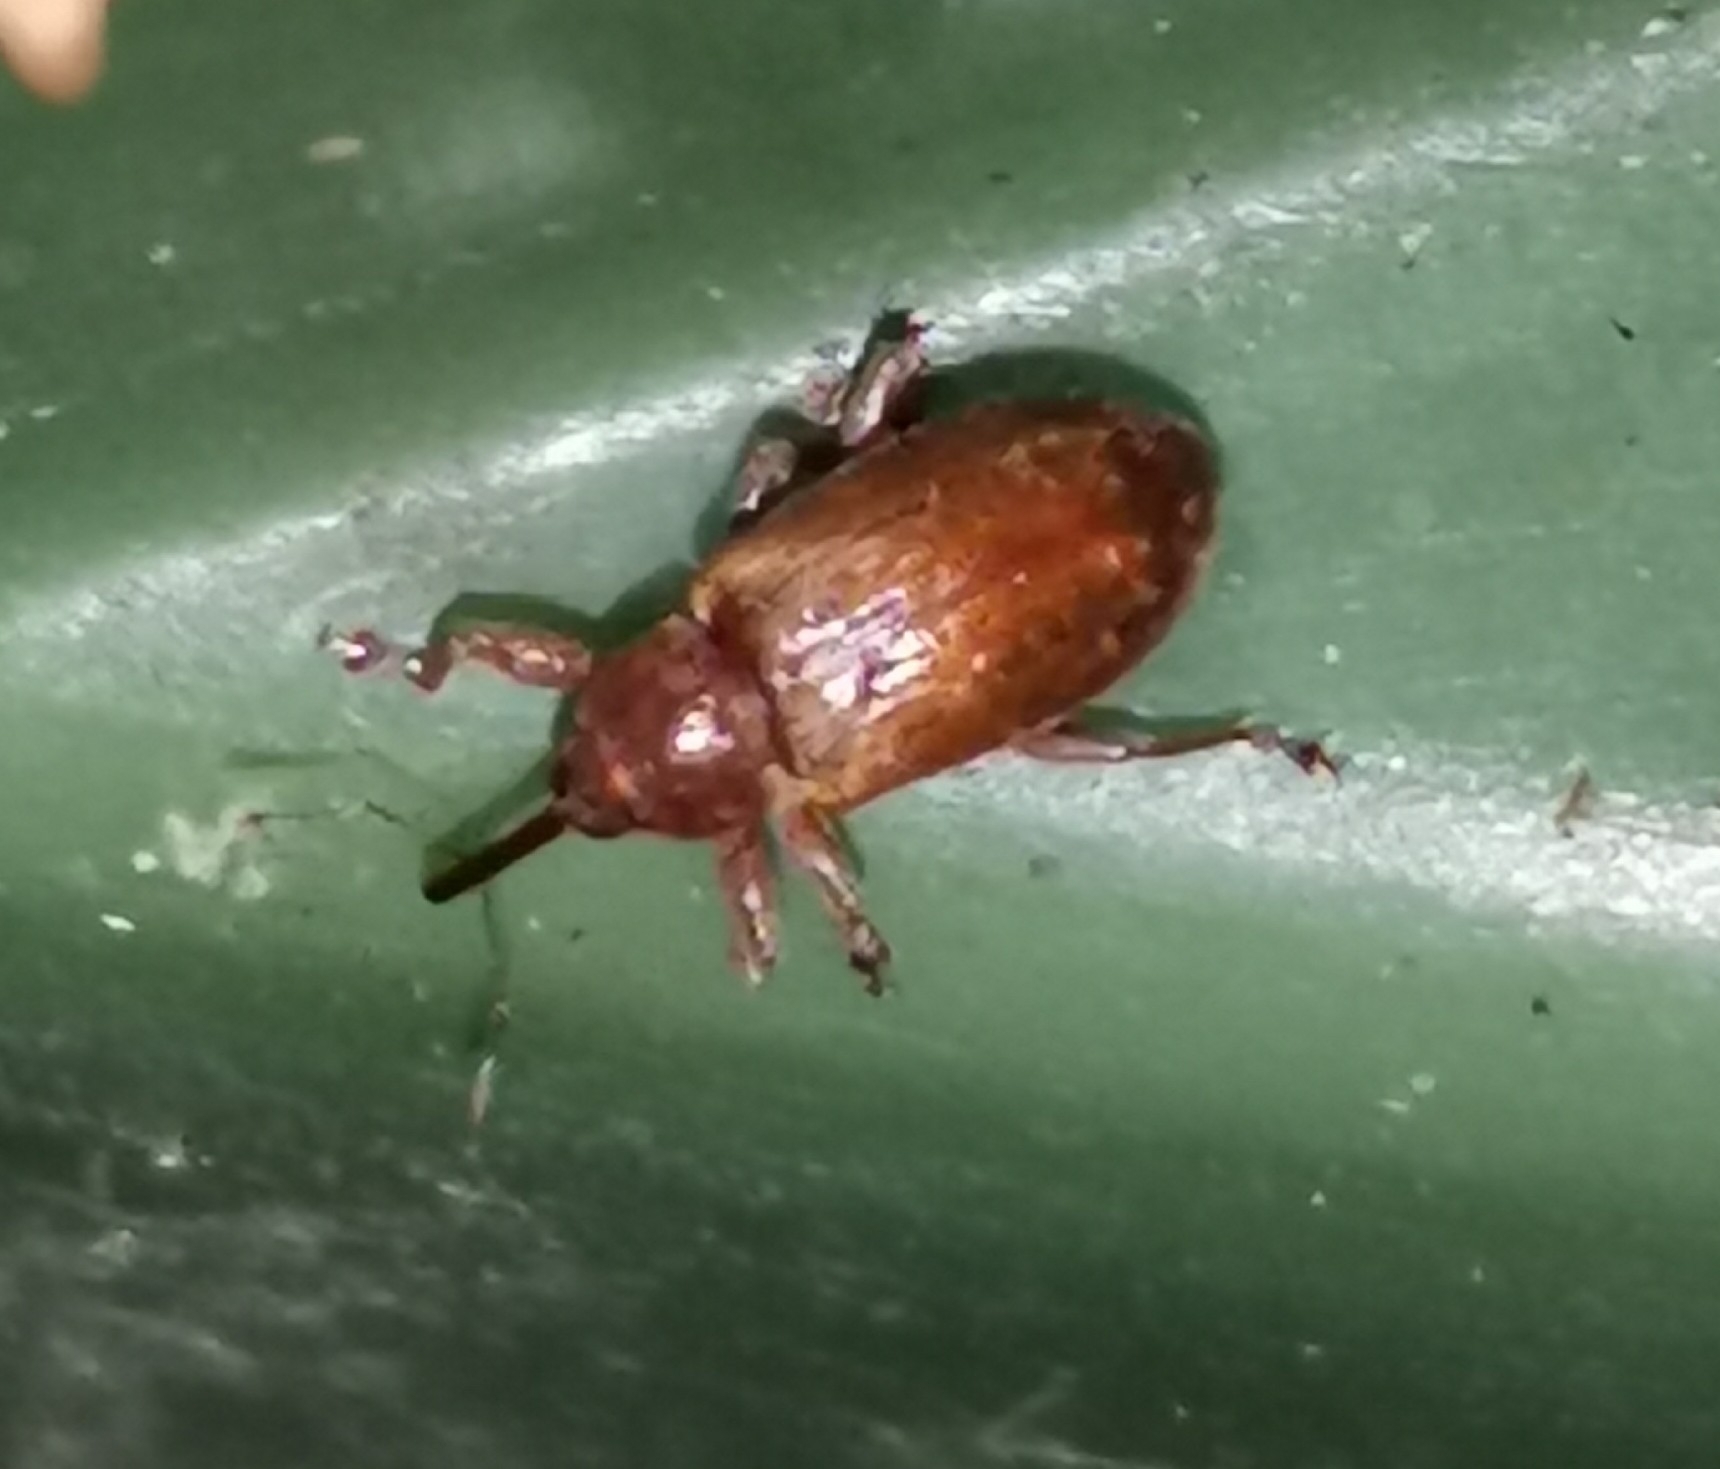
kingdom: Animalia
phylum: Arthropoda
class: Insecta
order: Coleoptera
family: Curculionidae
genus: Dorytomus
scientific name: Dorytomus tortrix
